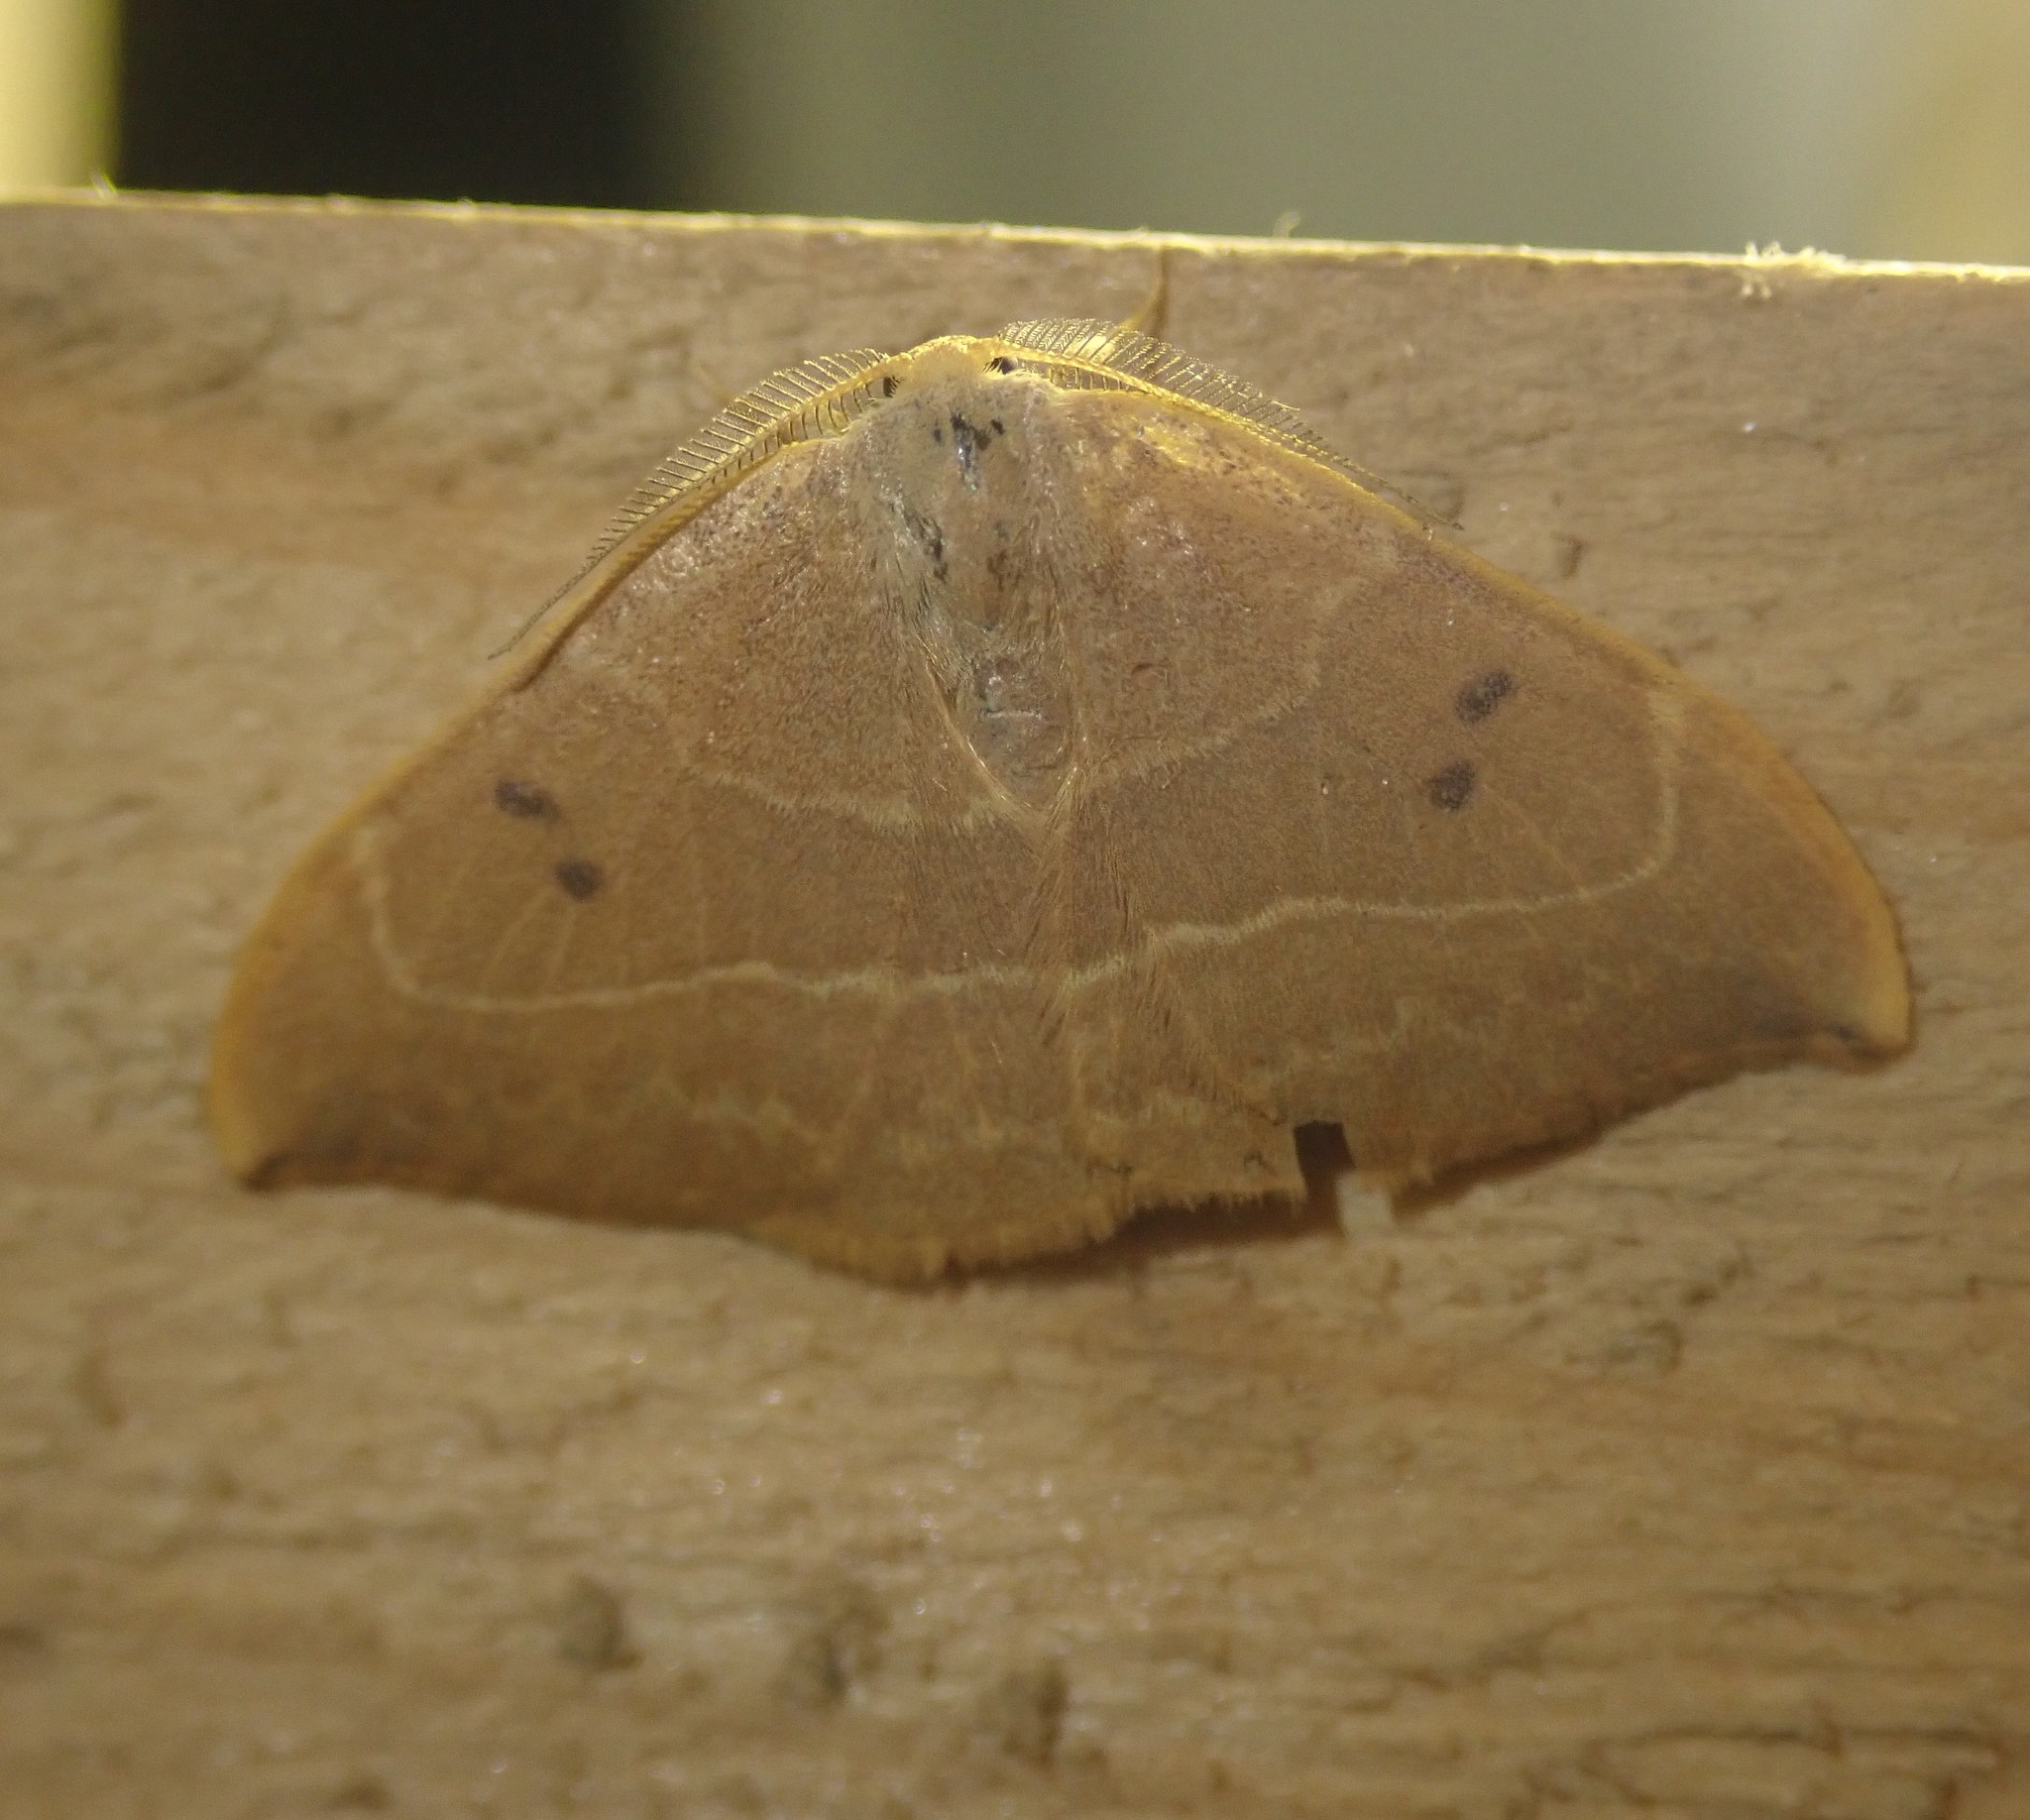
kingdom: Animalia
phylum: Arthropoda
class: Insecta
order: Lepidoptera
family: Drepanidae
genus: Watsonalla
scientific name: Watsonalla binaria
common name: Oak hook-tip
